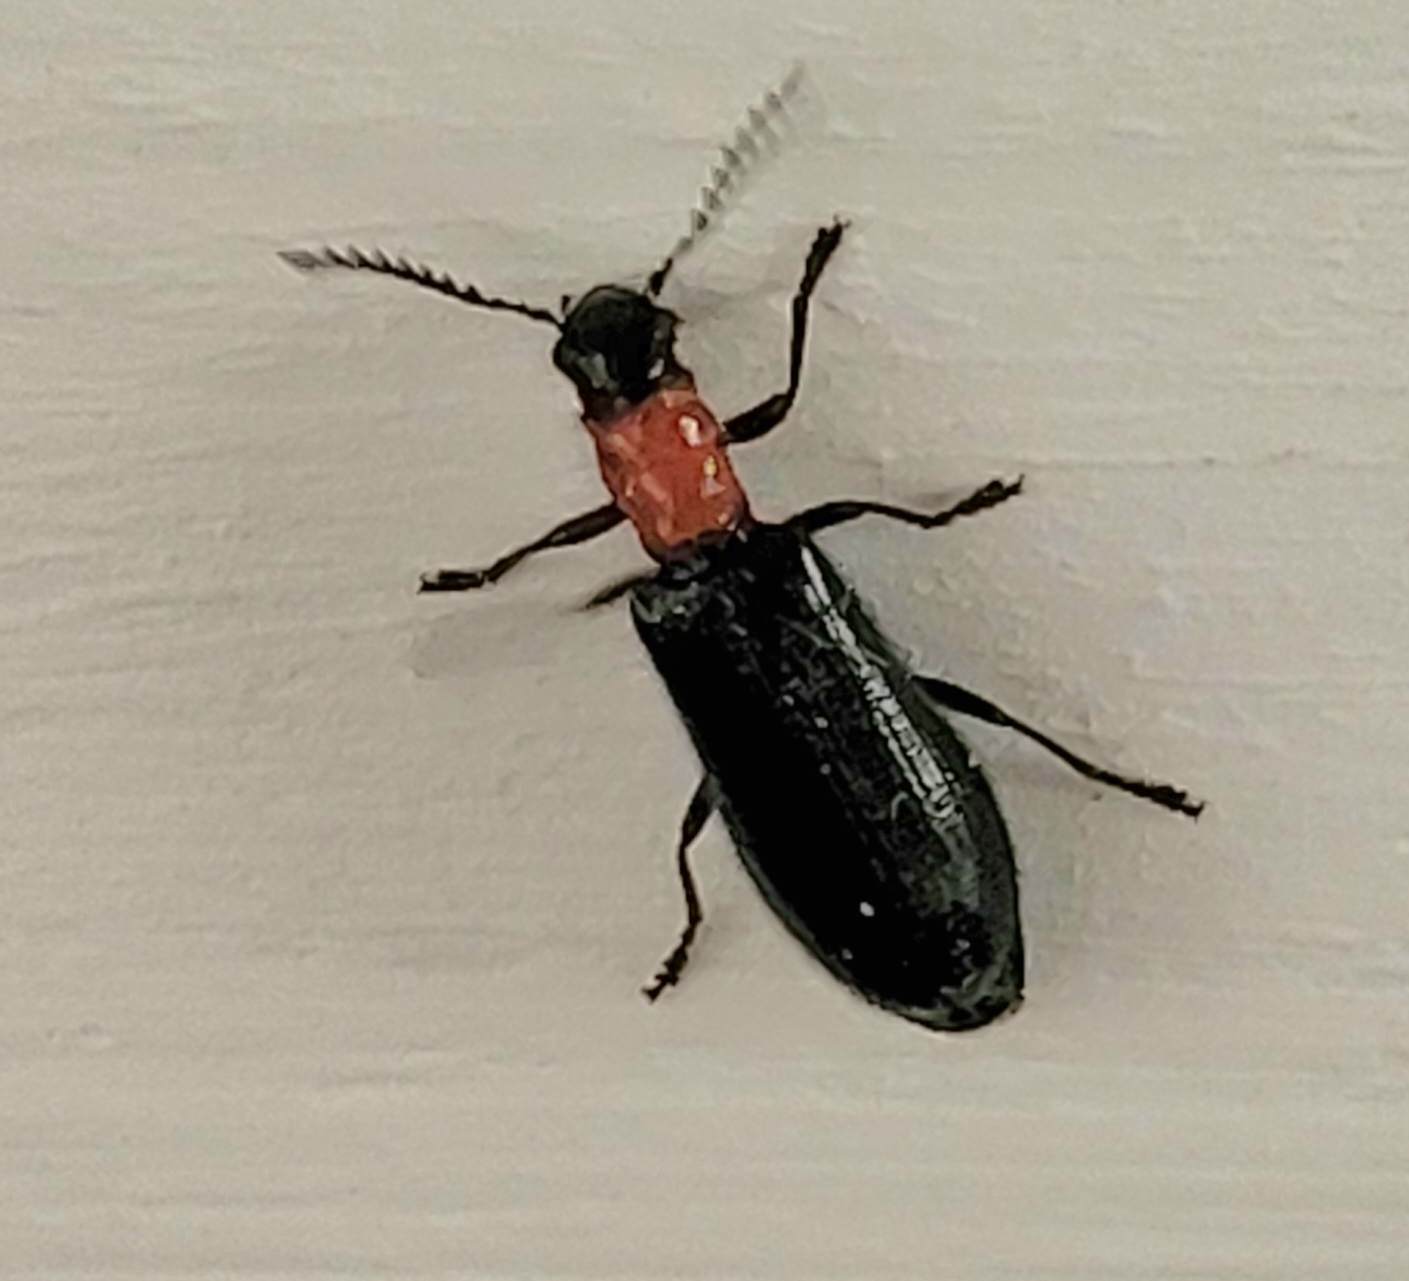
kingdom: Animalia
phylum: Arthropoda
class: Insecta
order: Coleoptera
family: Cleridae
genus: Tillus
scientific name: Tillus elongatus
